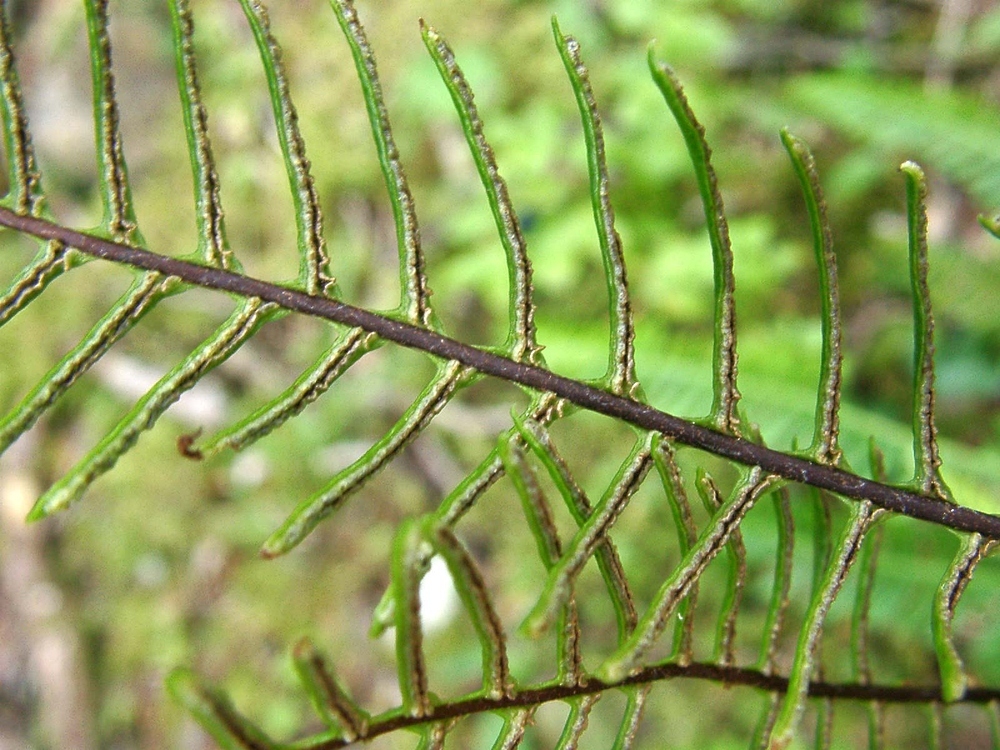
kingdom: Plantae
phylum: Tracheophyta
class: Polypodiopsida
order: Polypodiales
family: Blechnaceae
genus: Struthiopteris
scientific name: Struthiopteris spicant
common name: Deer fern
